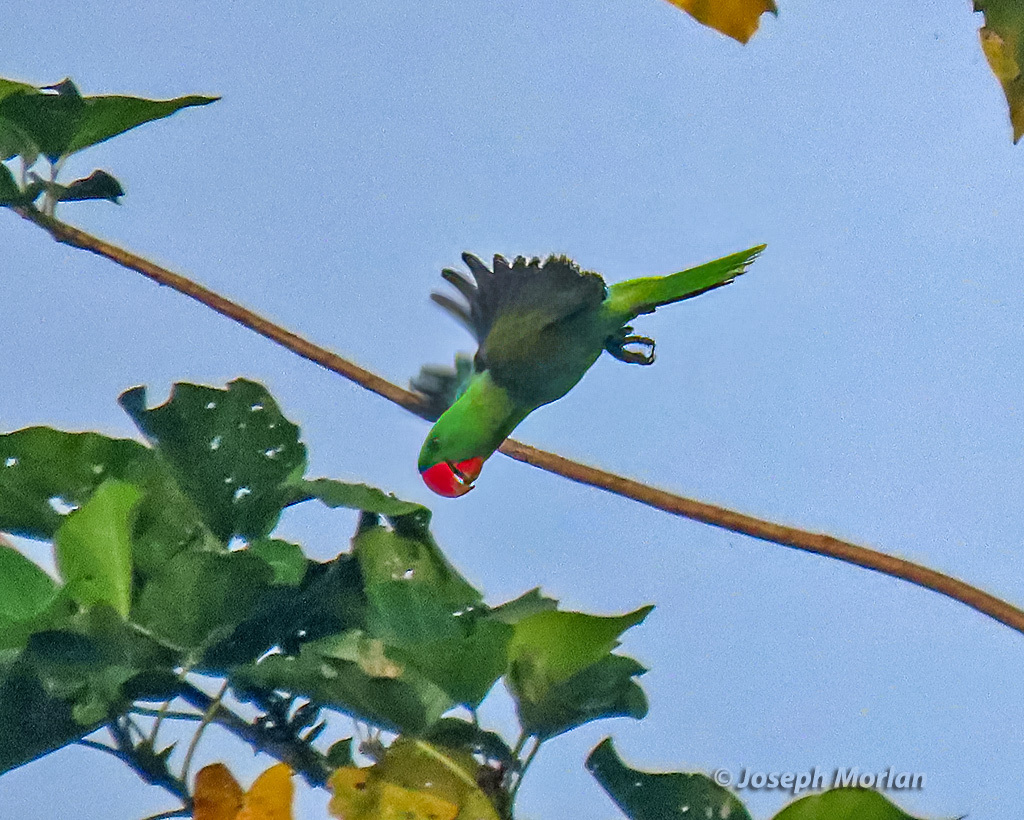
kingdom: Animalia
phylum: Chordata
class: Aves
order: Psittaciformes
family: Psittacidae
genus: Tanygnathus
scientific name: Tanygnathus megalorynchos
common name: Great-billed parrot
